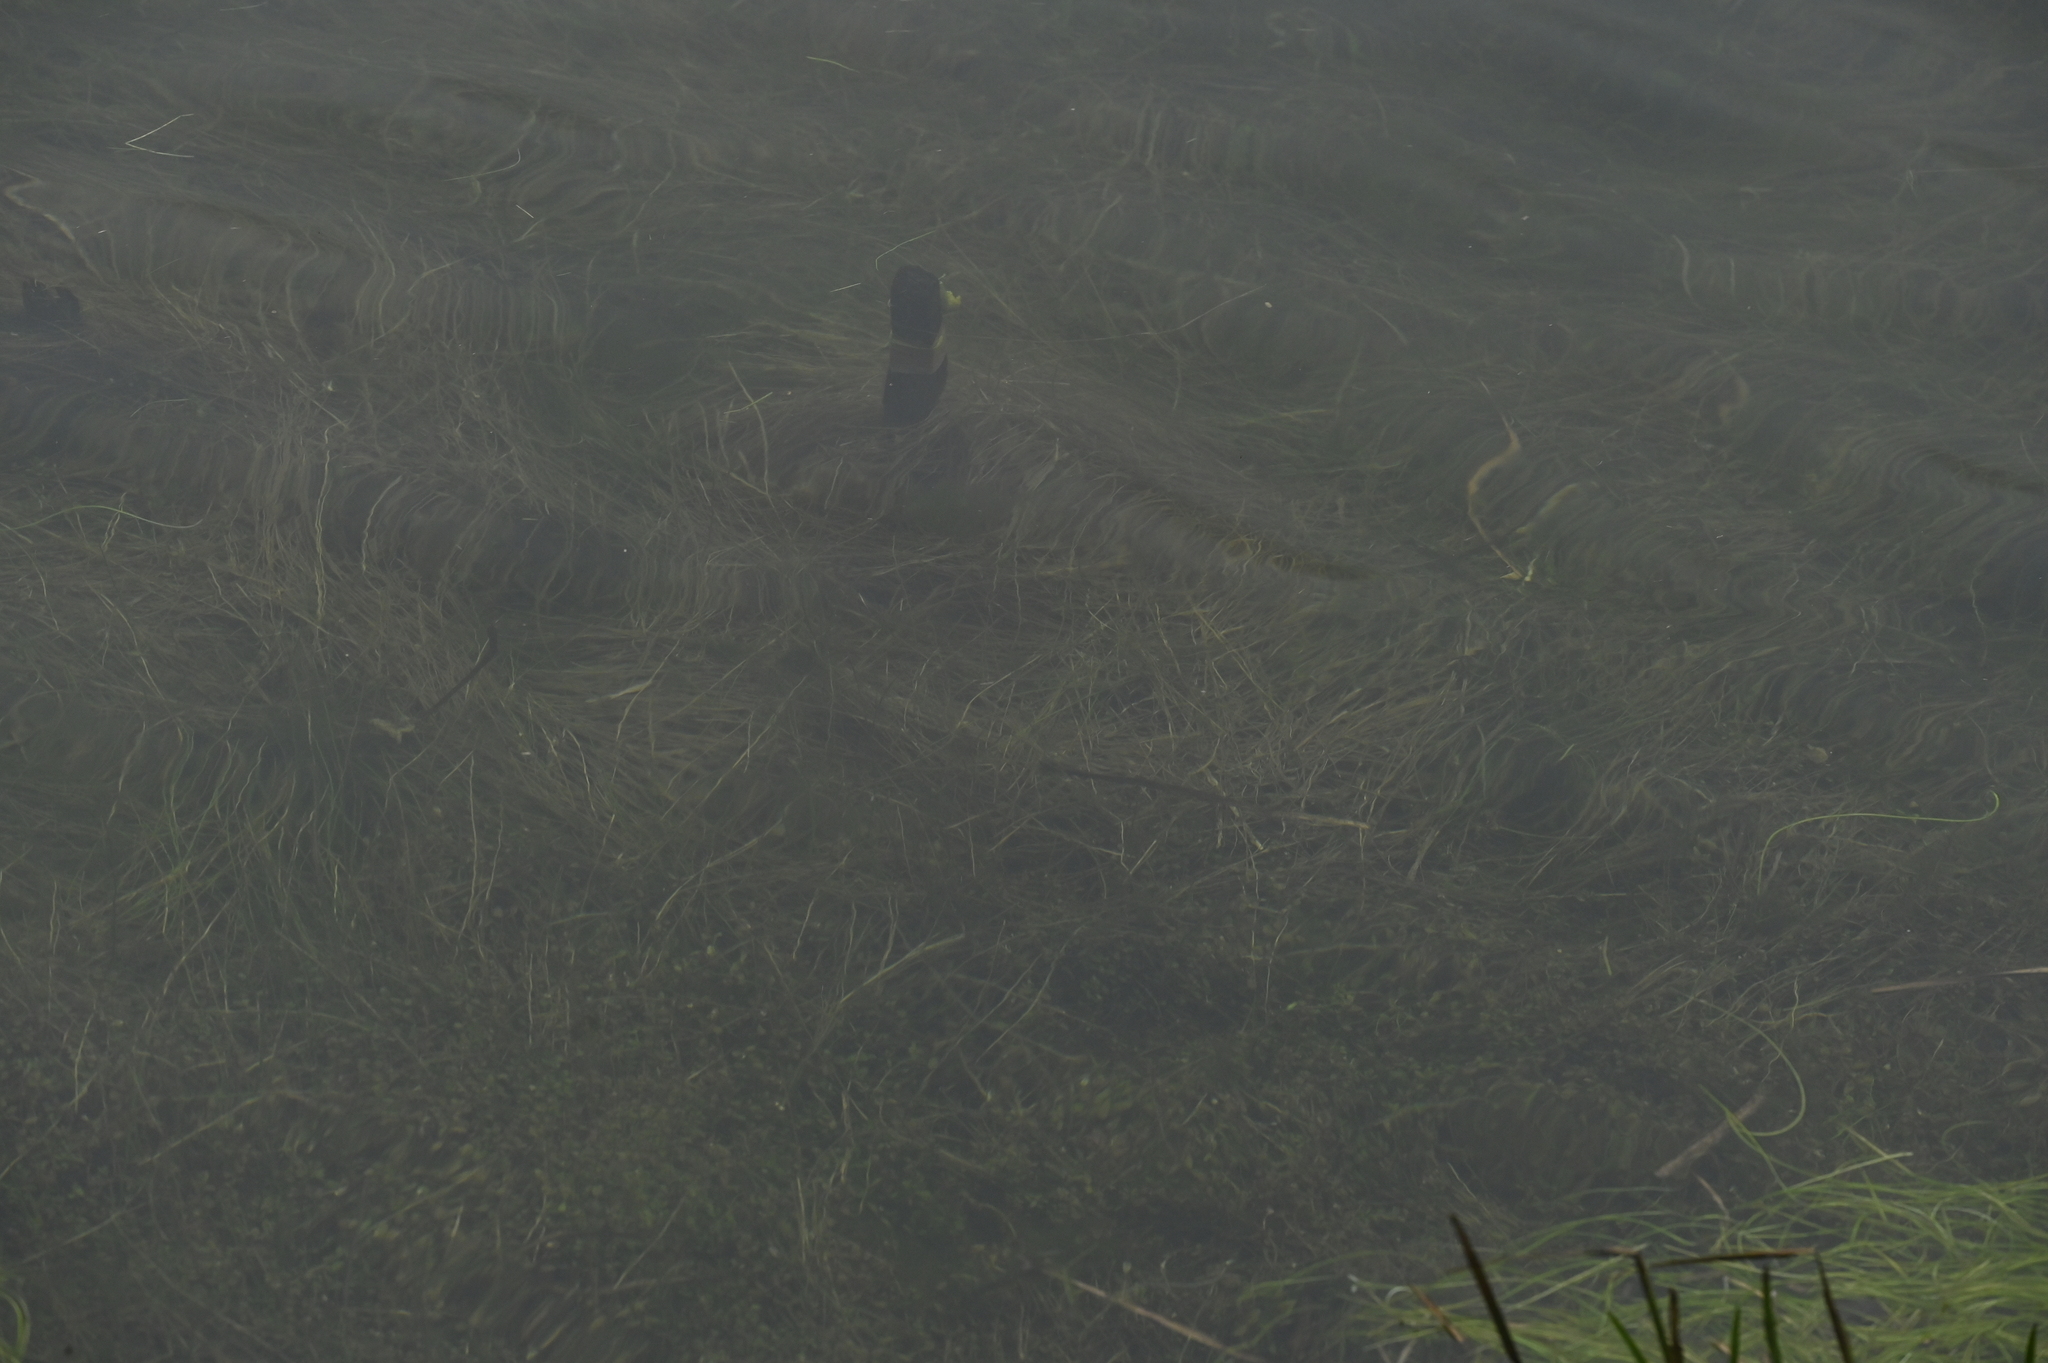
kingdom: Plantae
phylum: Tracheophyta
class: Lycopodiopsida
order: Isoetales
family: Isoetaceae
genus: Isoetes
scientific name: Isoetes taiwanensis
